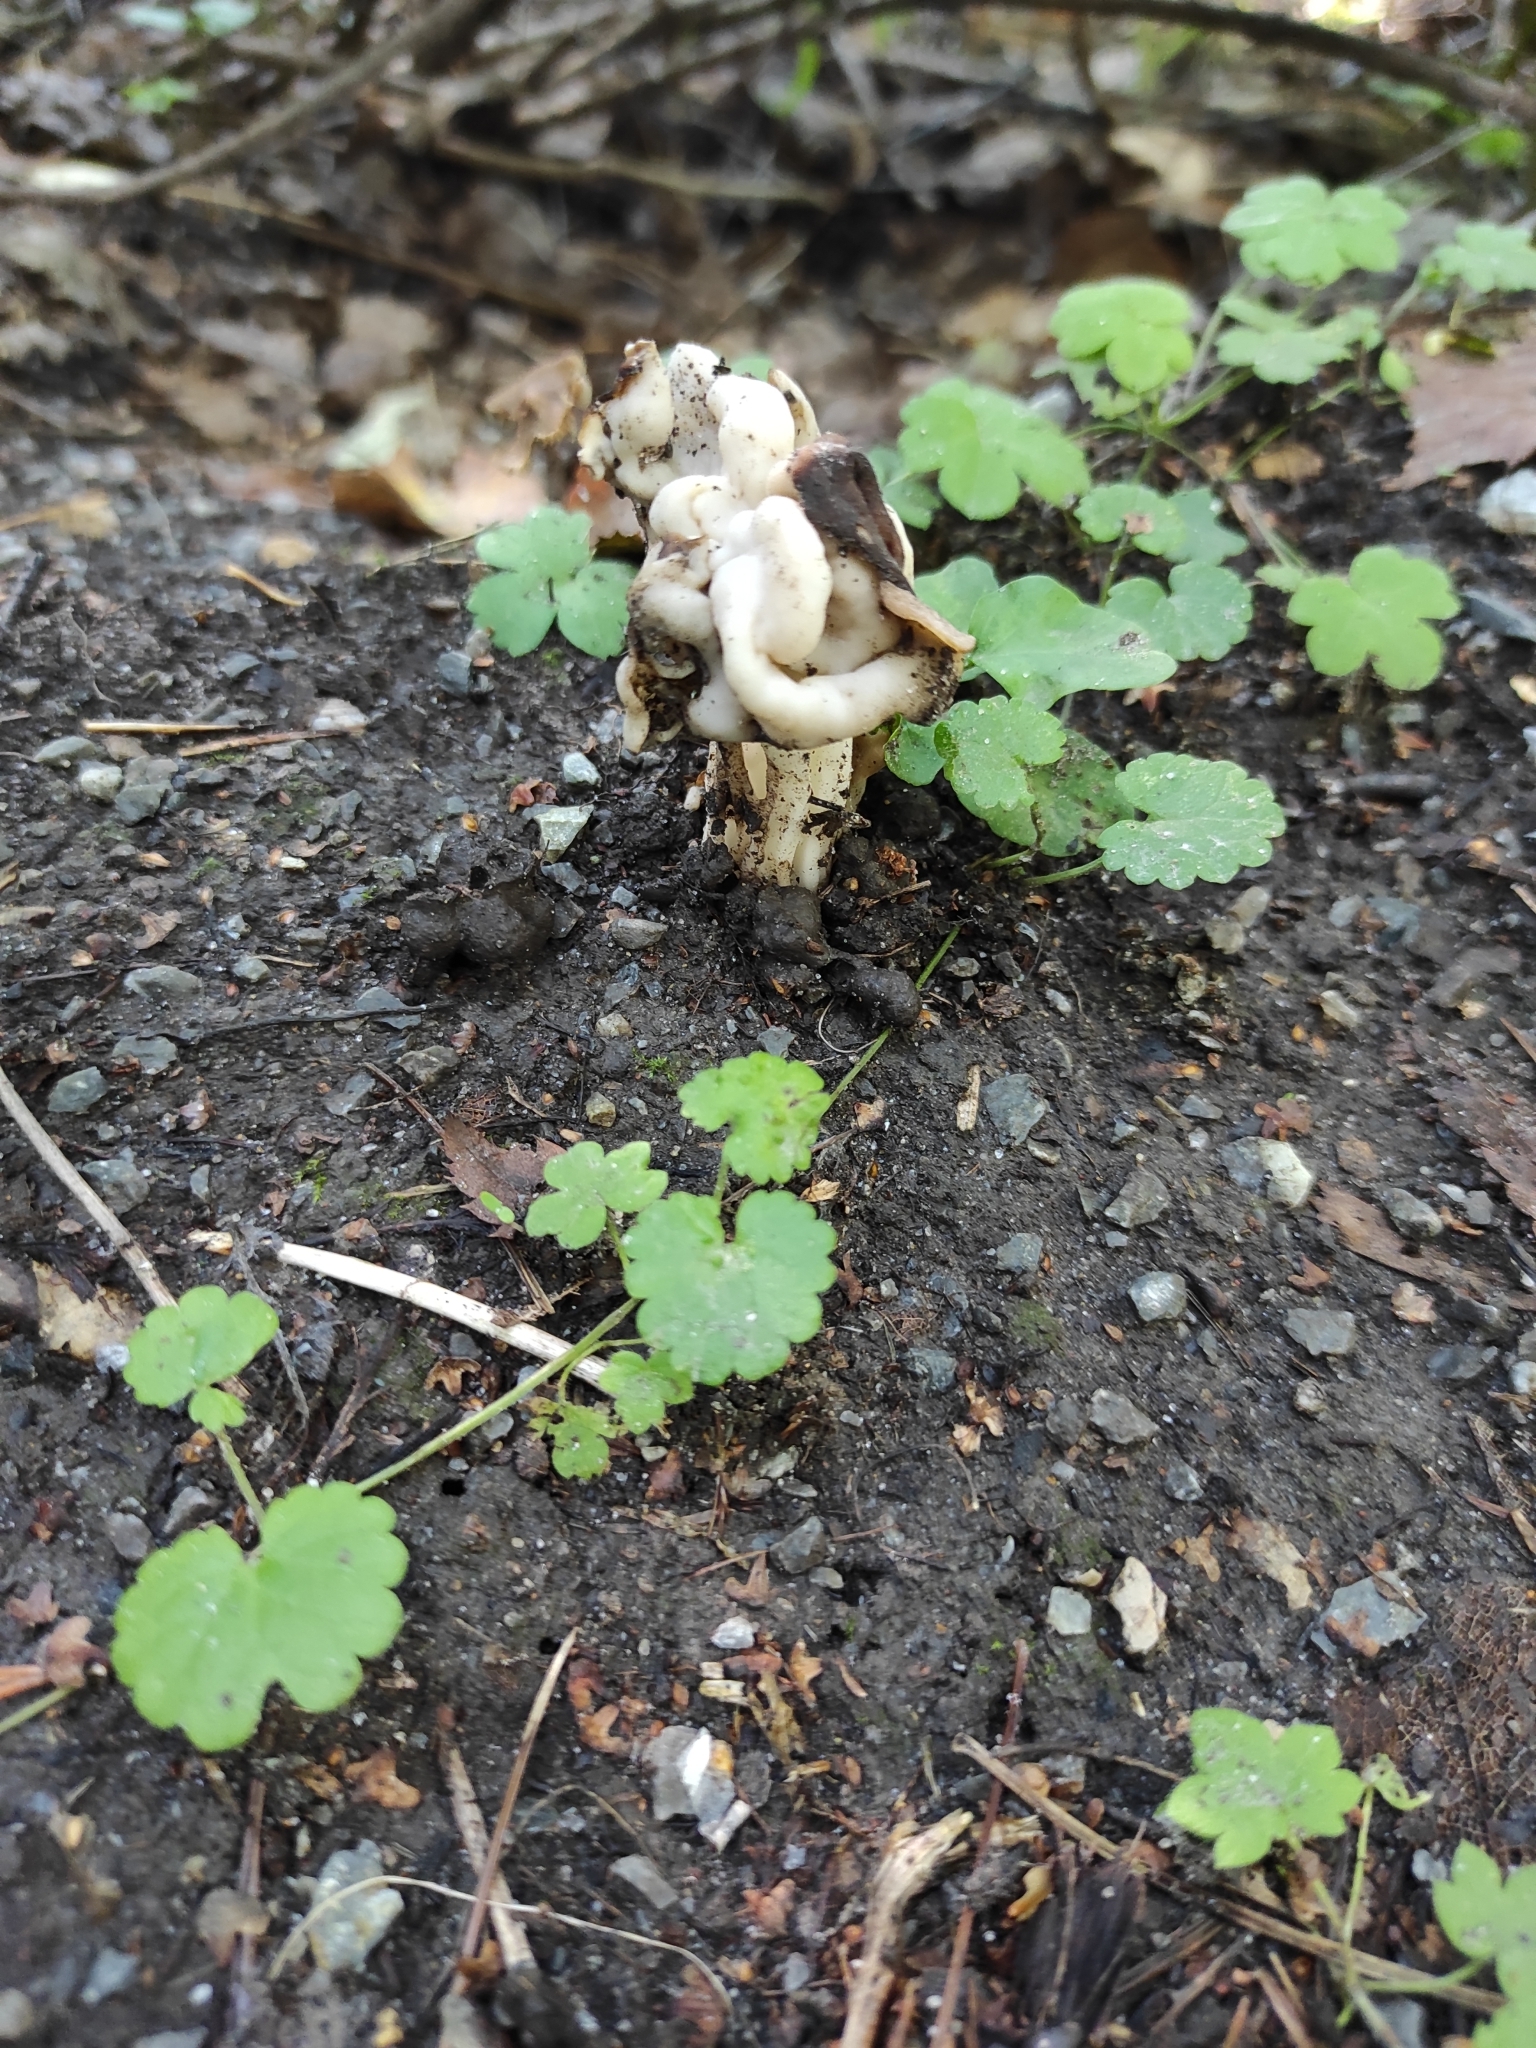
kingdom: Fungi
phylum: Ascomycota
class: Pezizomycetes
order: Pezizales
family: Helvellaceae
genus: Helvella
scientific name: Helvella crispa
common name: White saddle
